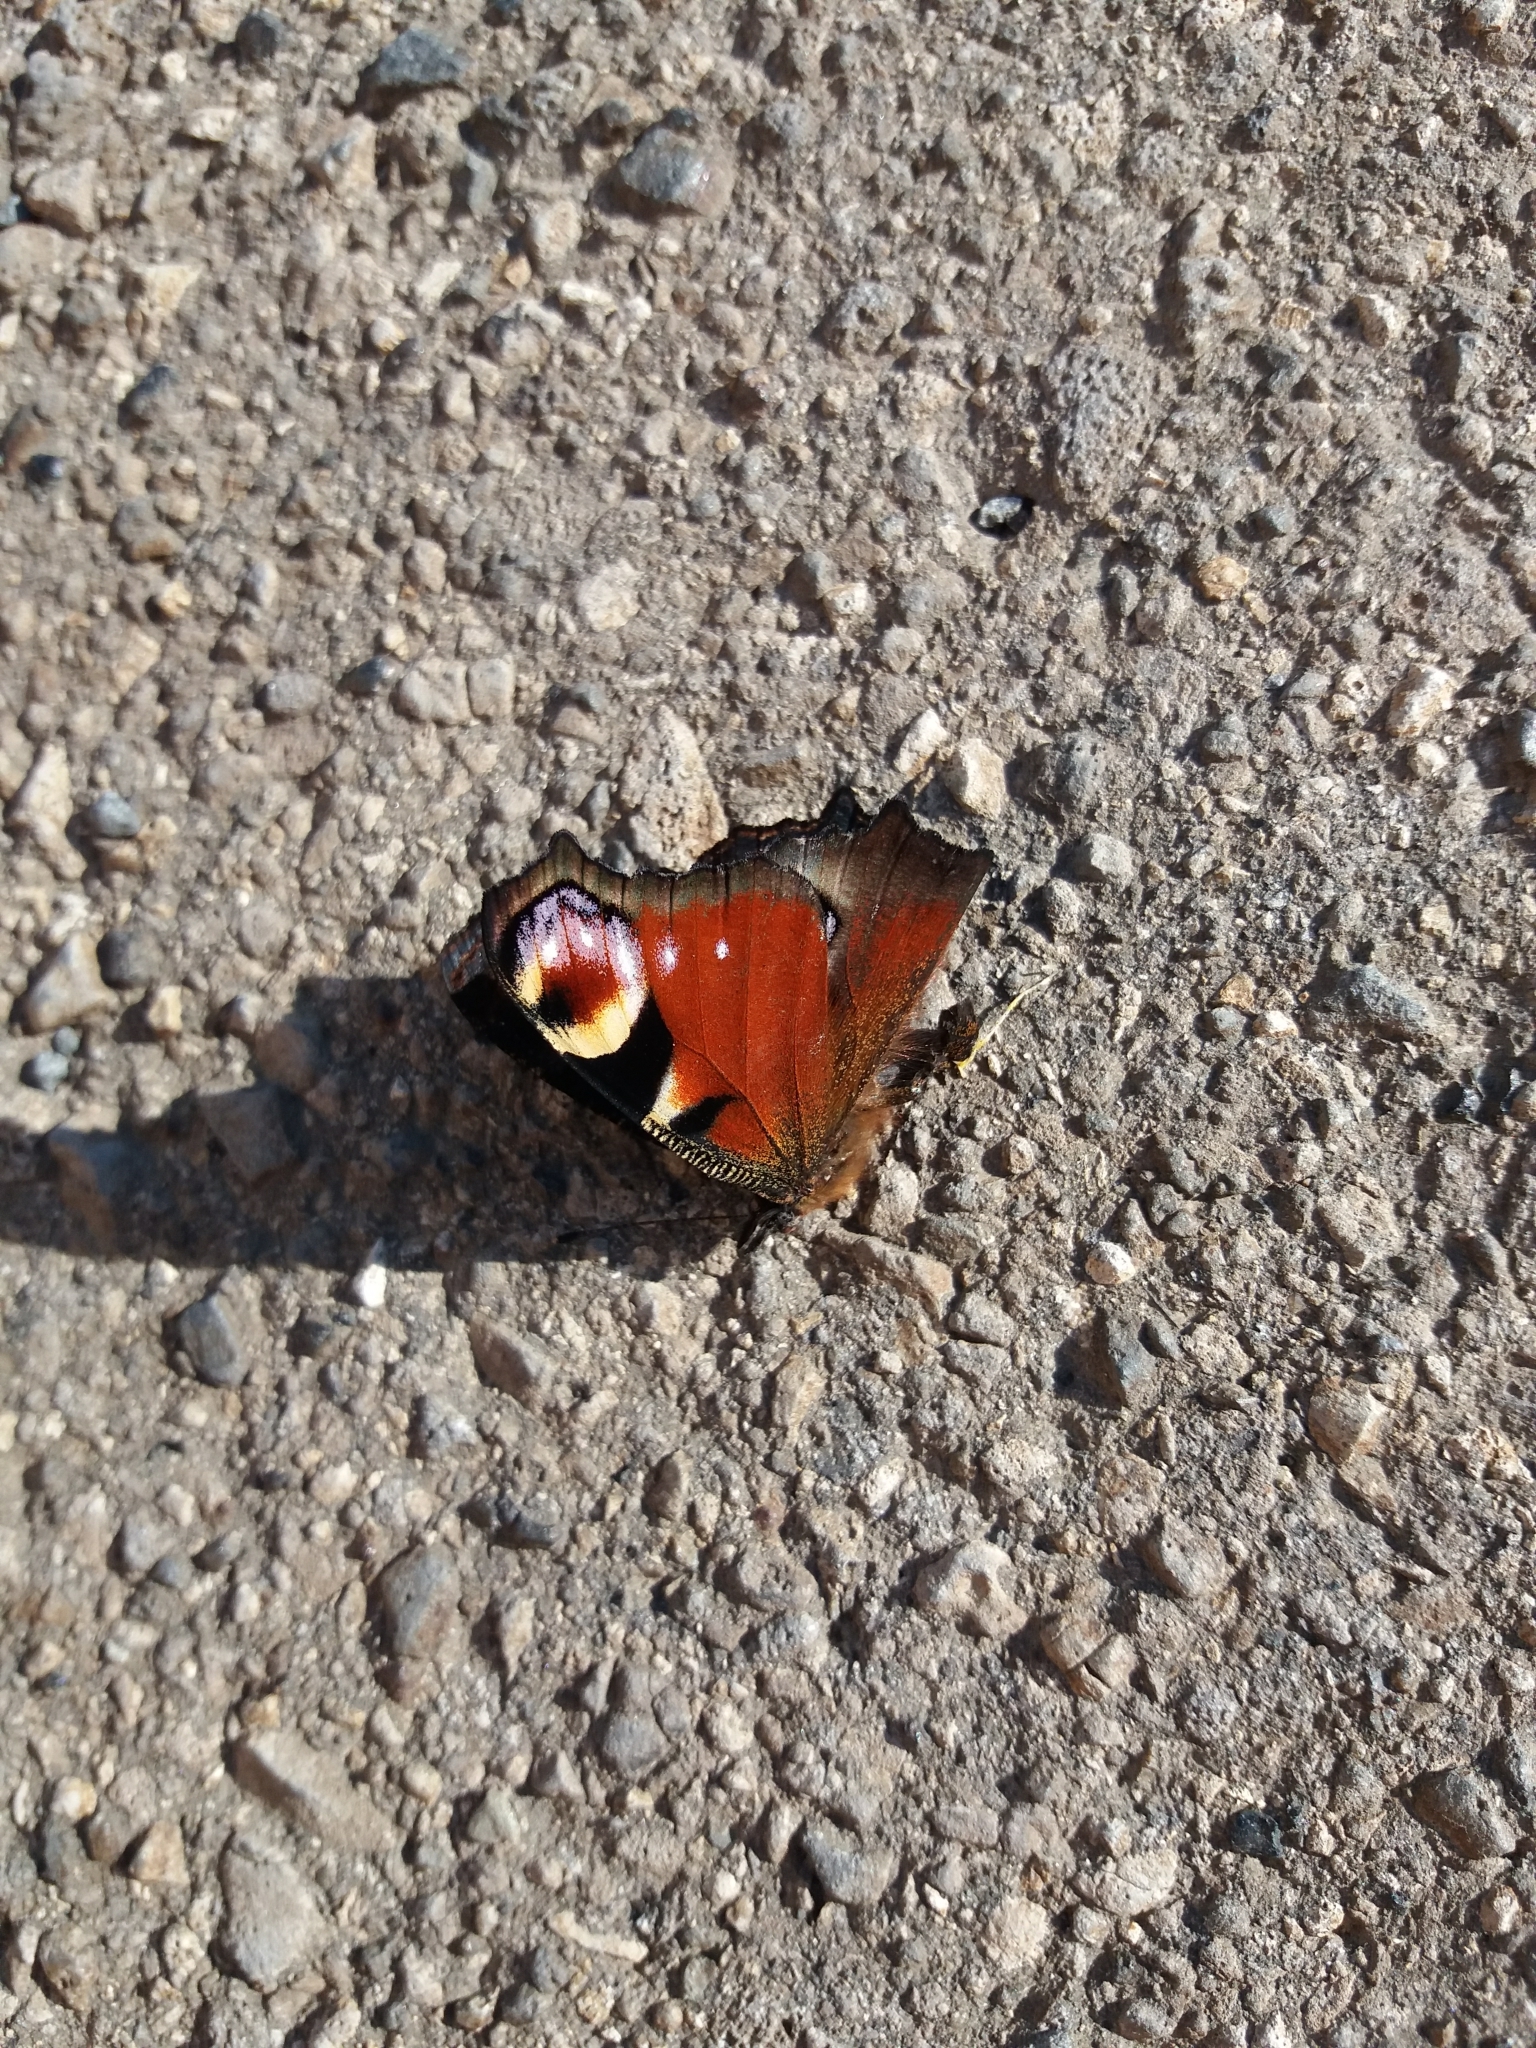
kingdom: Animalia
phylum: Arthropoda
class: Insecta
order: Lepidoptera
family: Nymphalidae
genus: Aglais
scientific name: Aglais io
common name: Peacock
